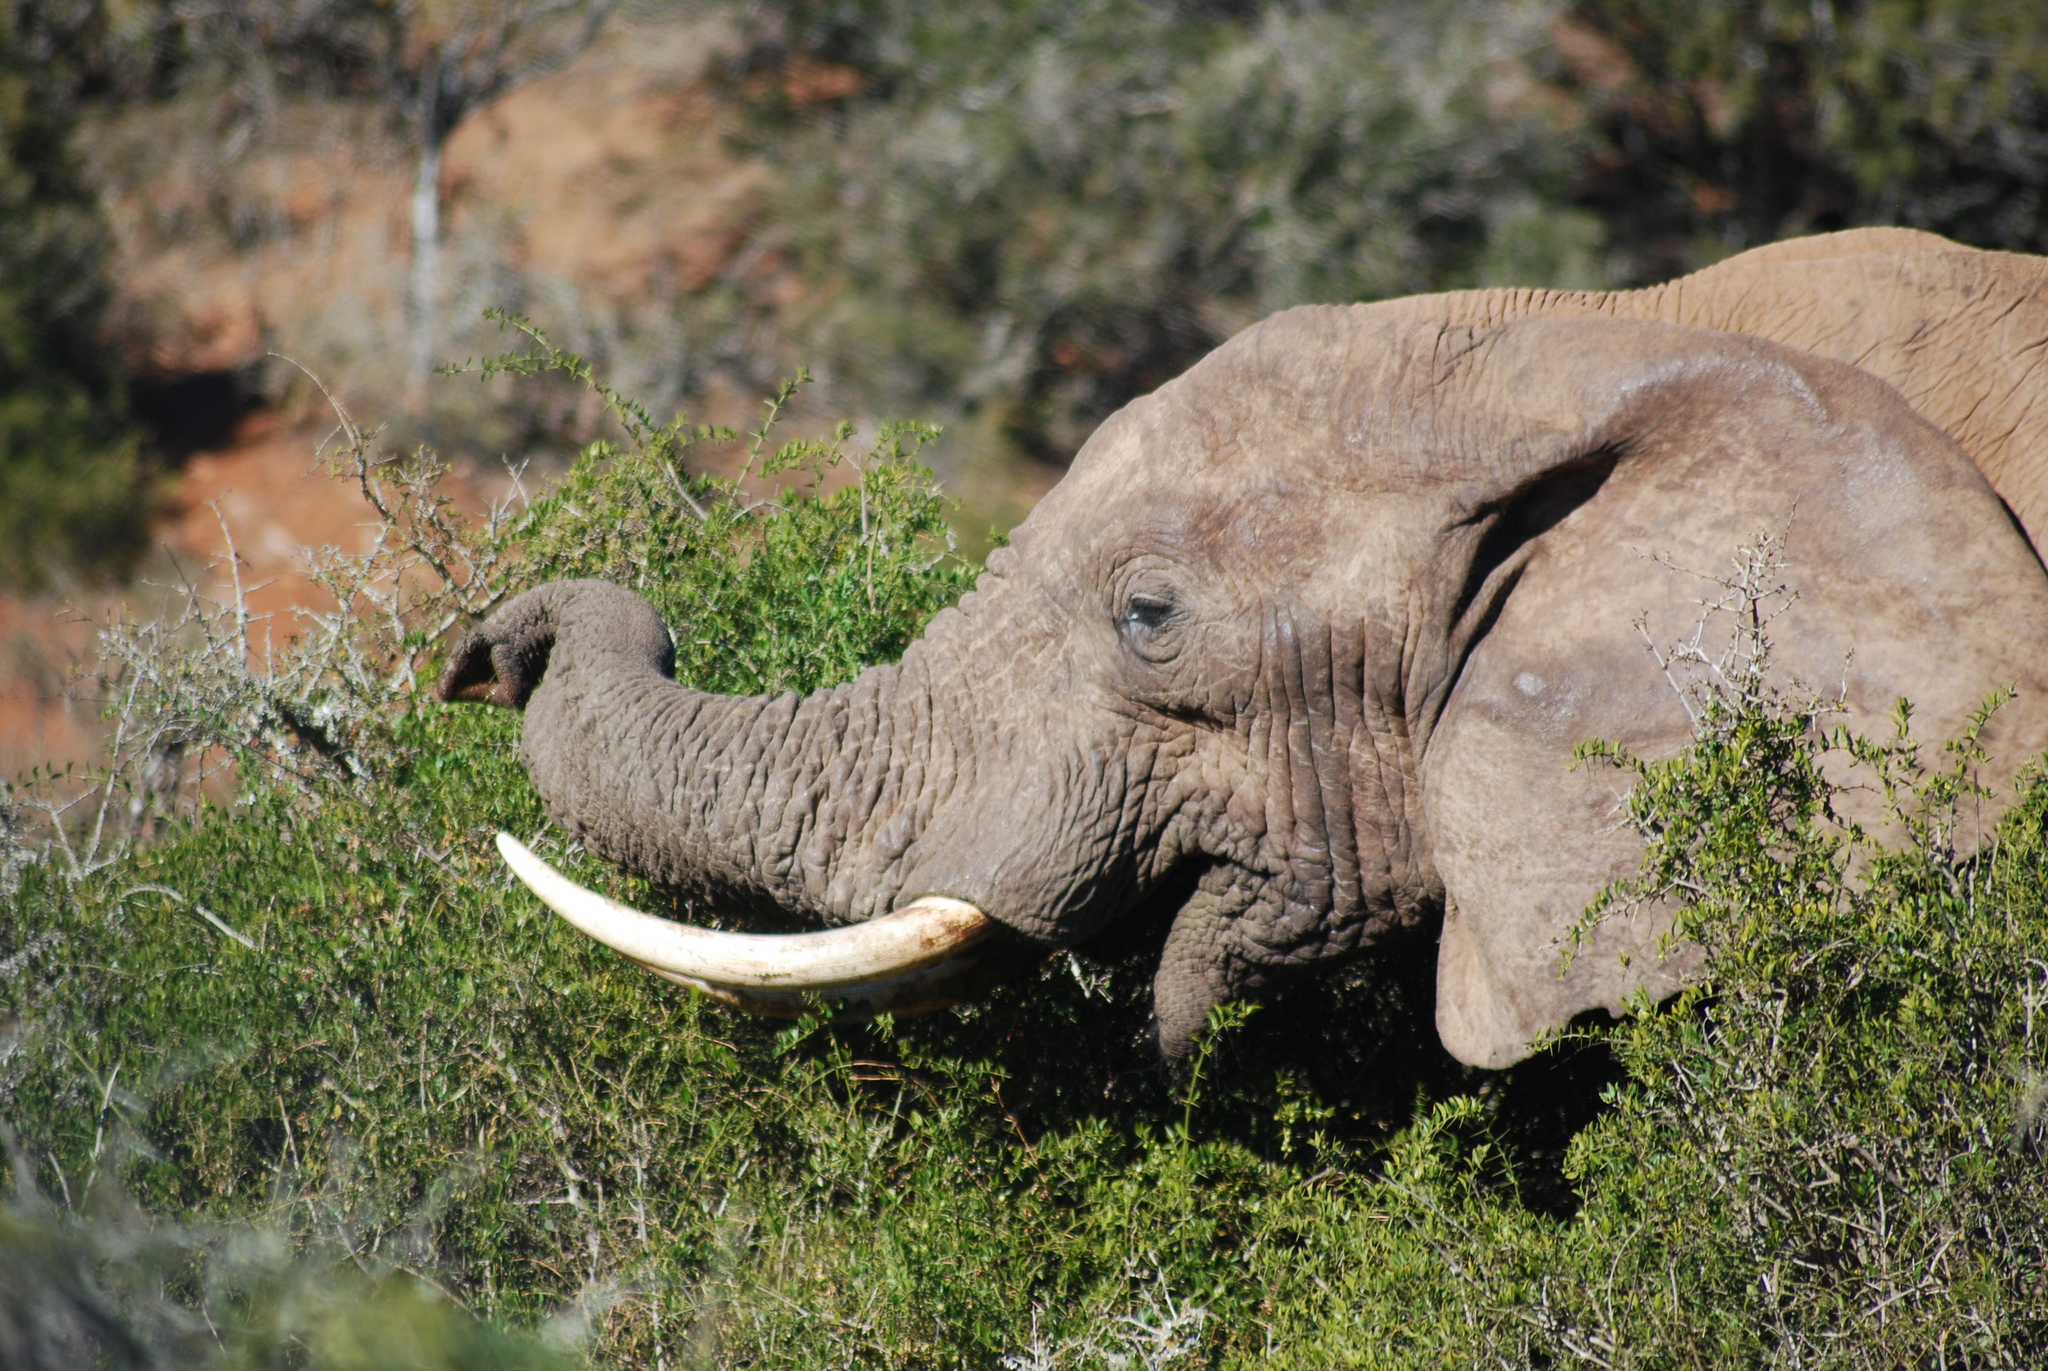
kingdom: Animalia
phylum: Chordata
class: Mammalia
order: Proboscidea
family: Elephantidae
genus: Loxodonta
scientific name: Loxodonta africana
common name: African elephant
